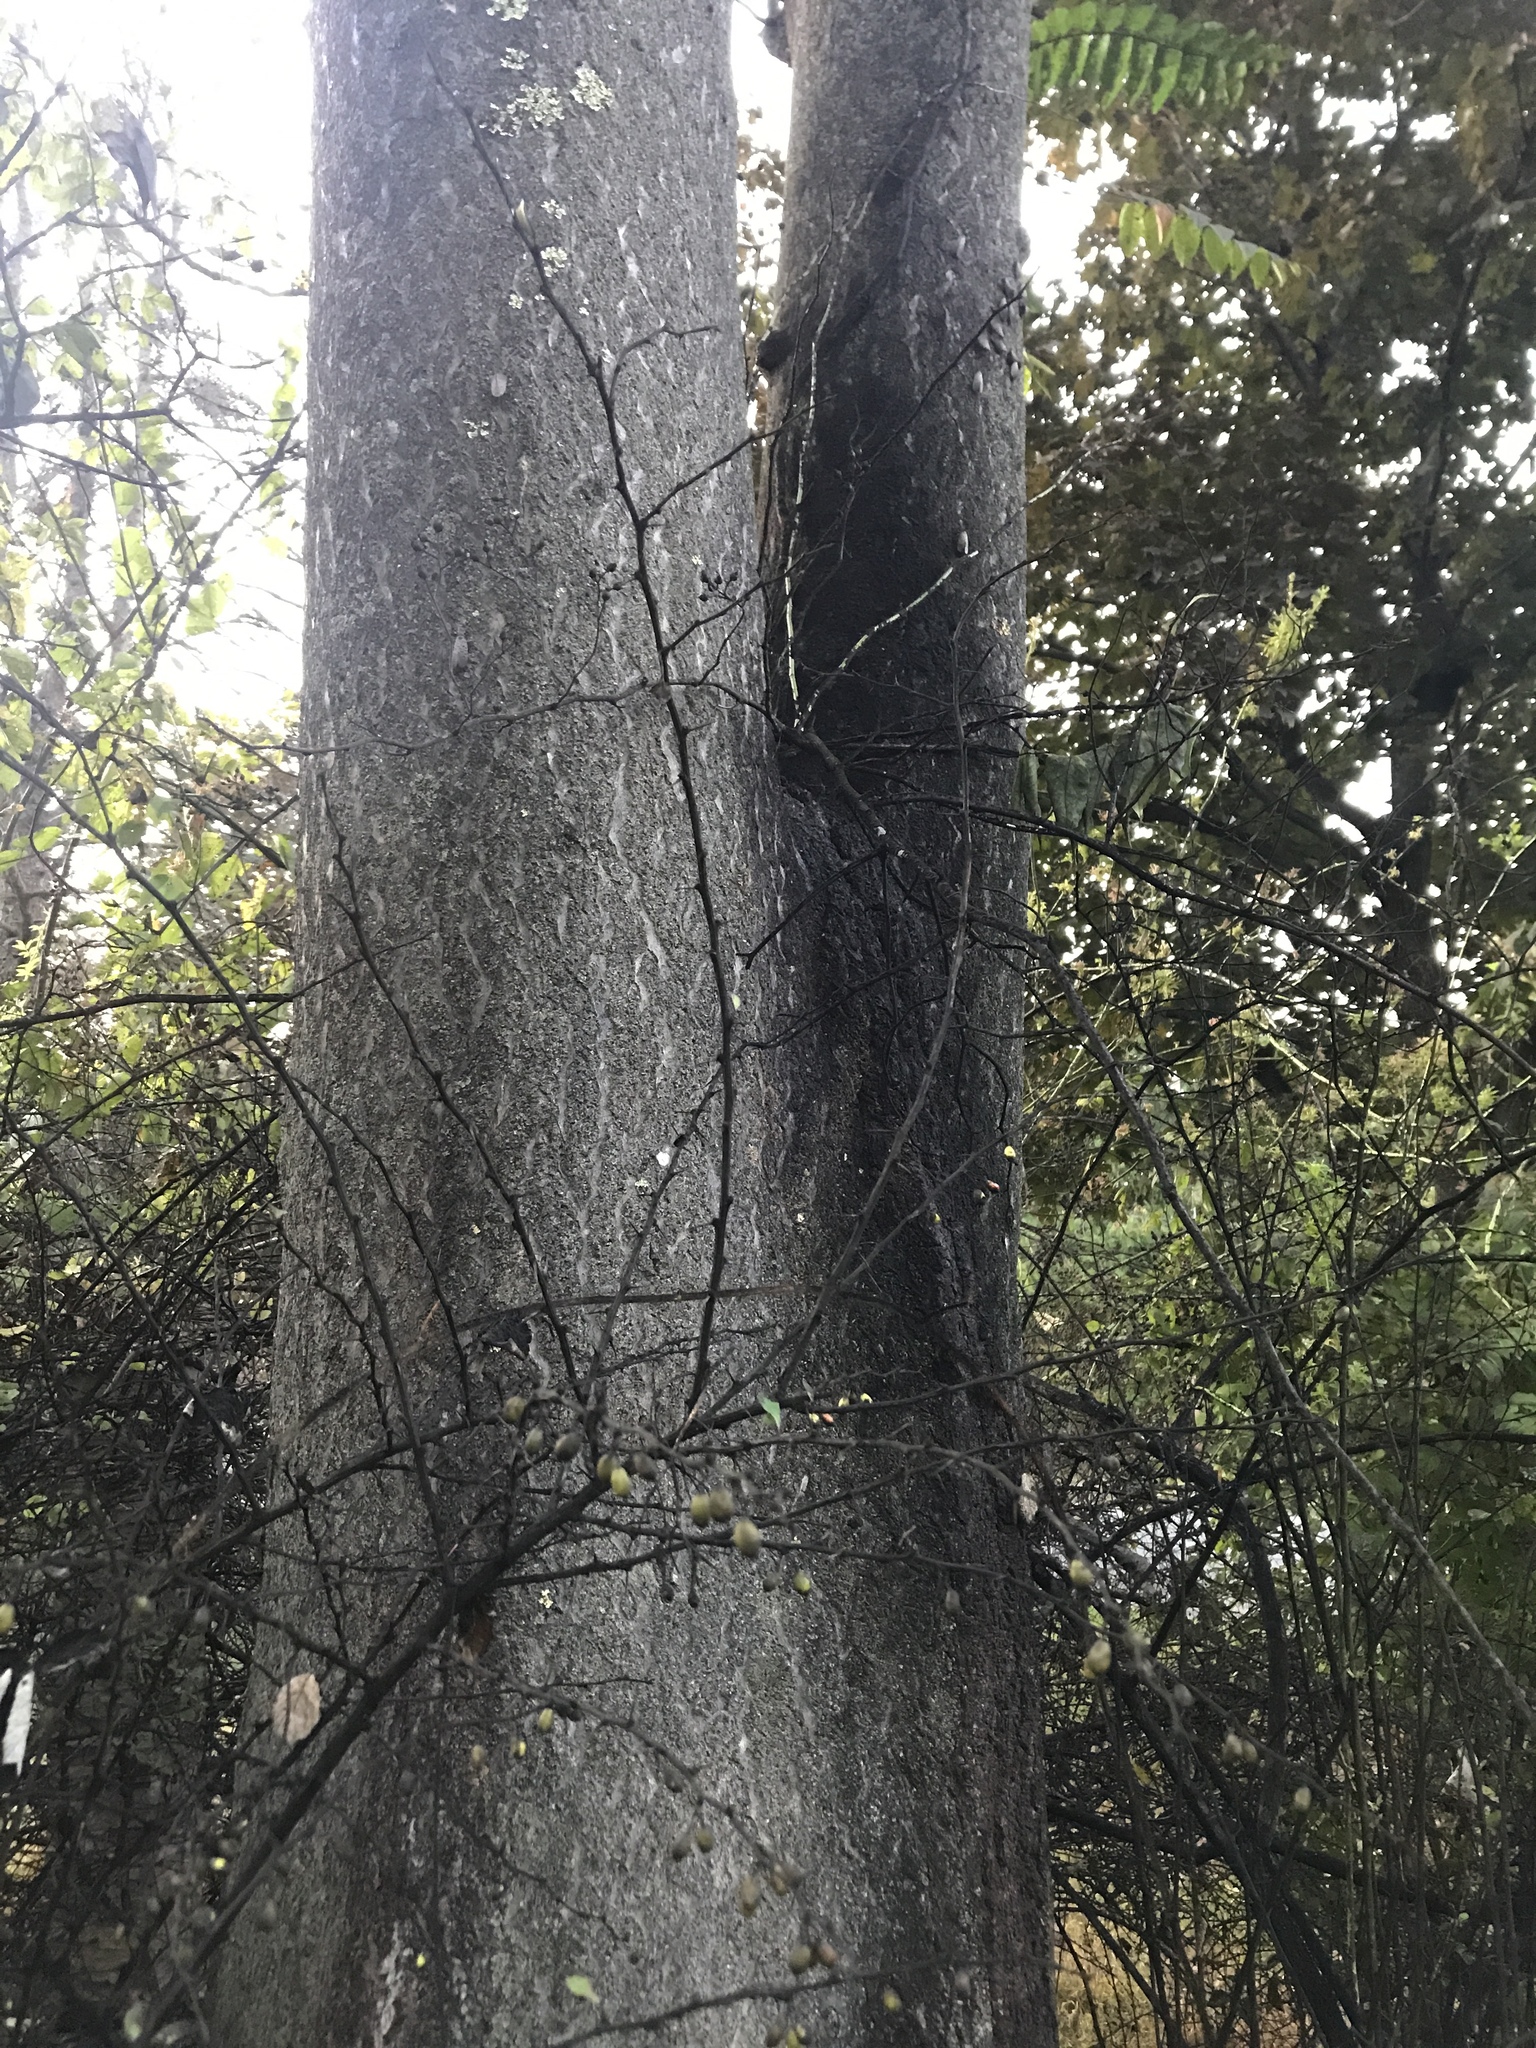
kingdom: Plantae
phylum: Tracheophyta
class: Magnoliopsida
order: Sapindales
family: Simaroubaceae
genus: Ailanthus
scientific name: Ailanthus altissima
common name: Tree-of-heaven
